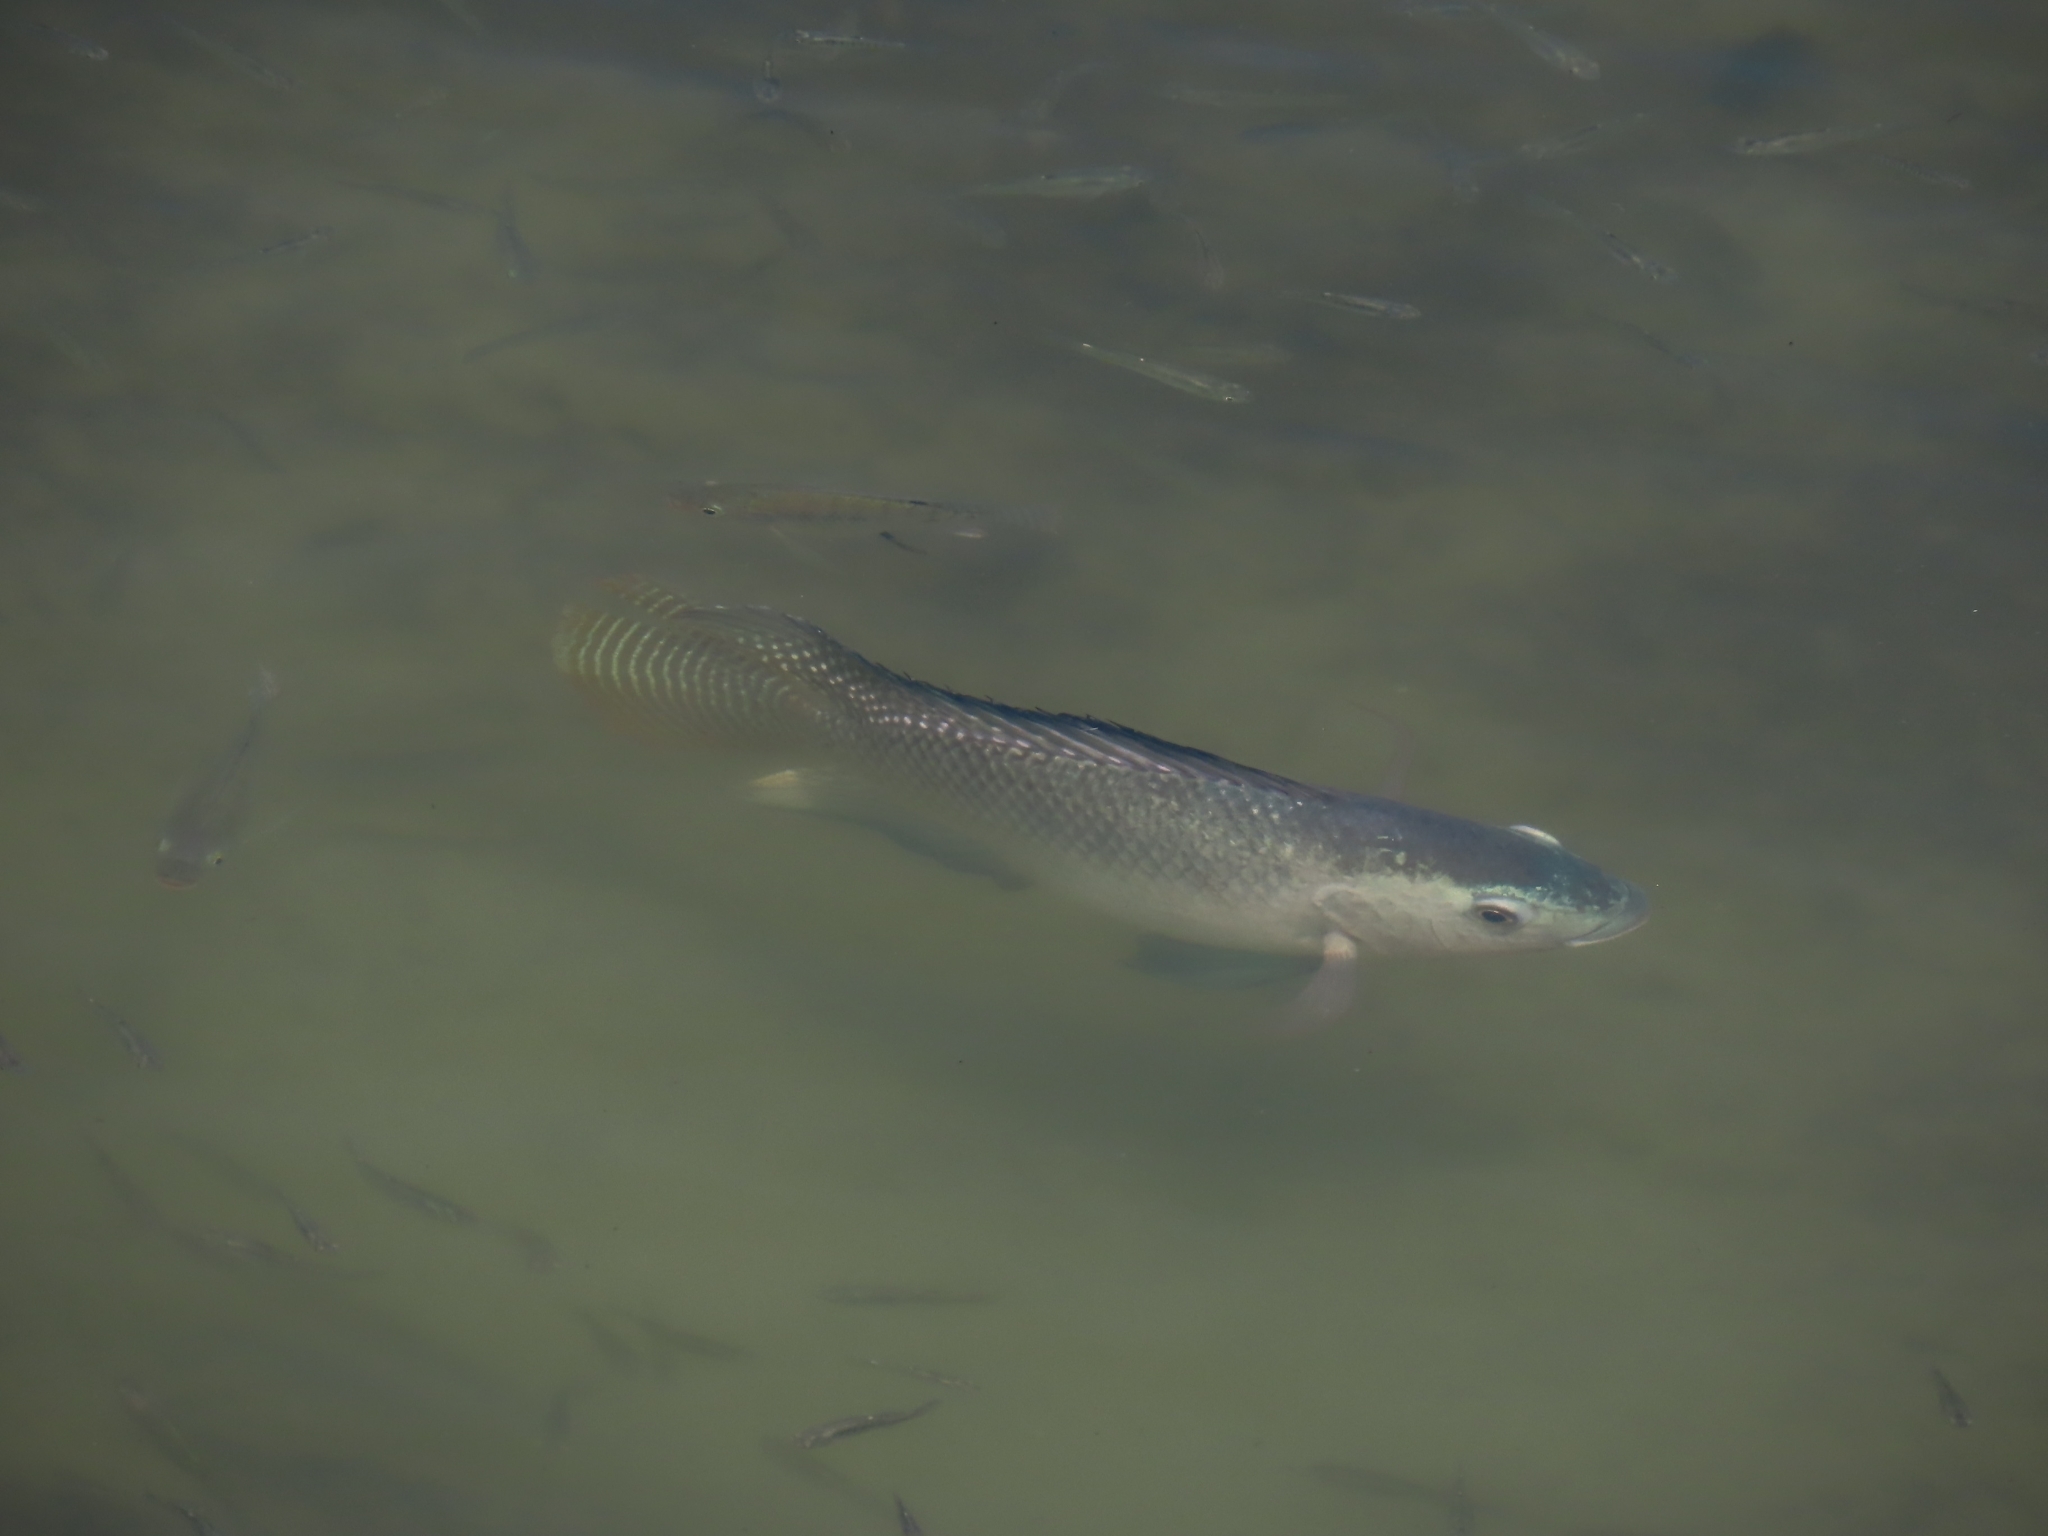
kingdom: Animalia
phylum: Chordata
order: Perciformes
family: Cichlidae
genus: Oreochromis
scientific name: Oreochromis niloticus
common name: Nile tilapia
